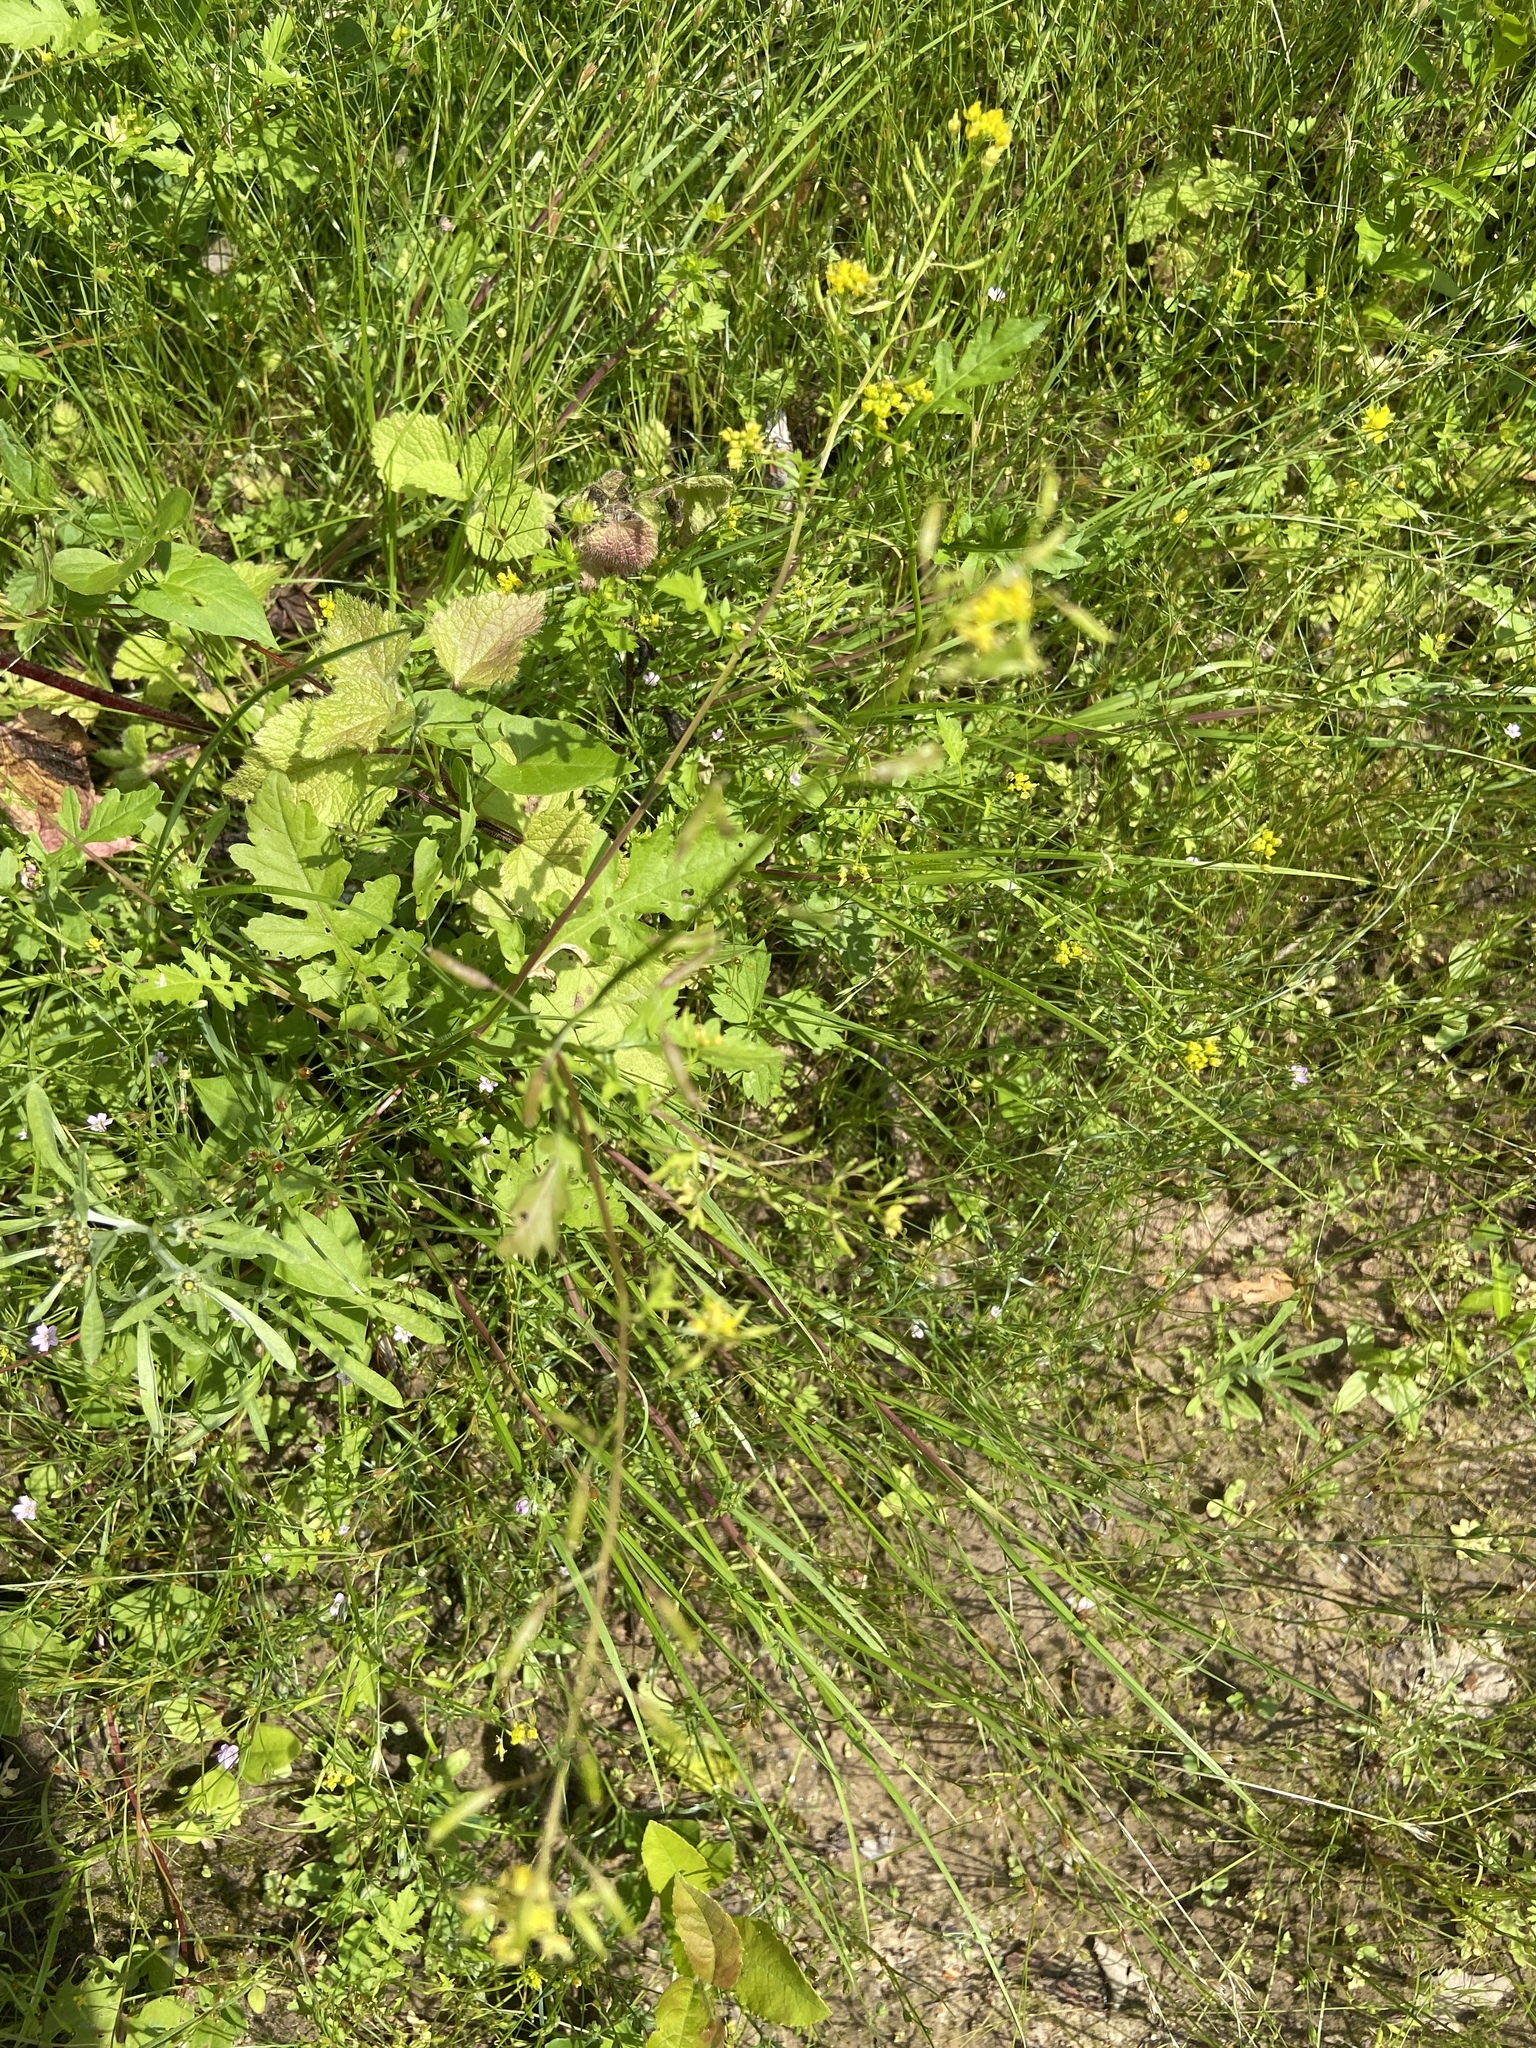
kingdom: Plantae
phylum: Tracheophyta
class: Magnoliopsida
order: Brassicales
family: Brassicaceae
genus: Rorippa
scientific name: Rorippa palustris
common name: Marsh yellow-cress
